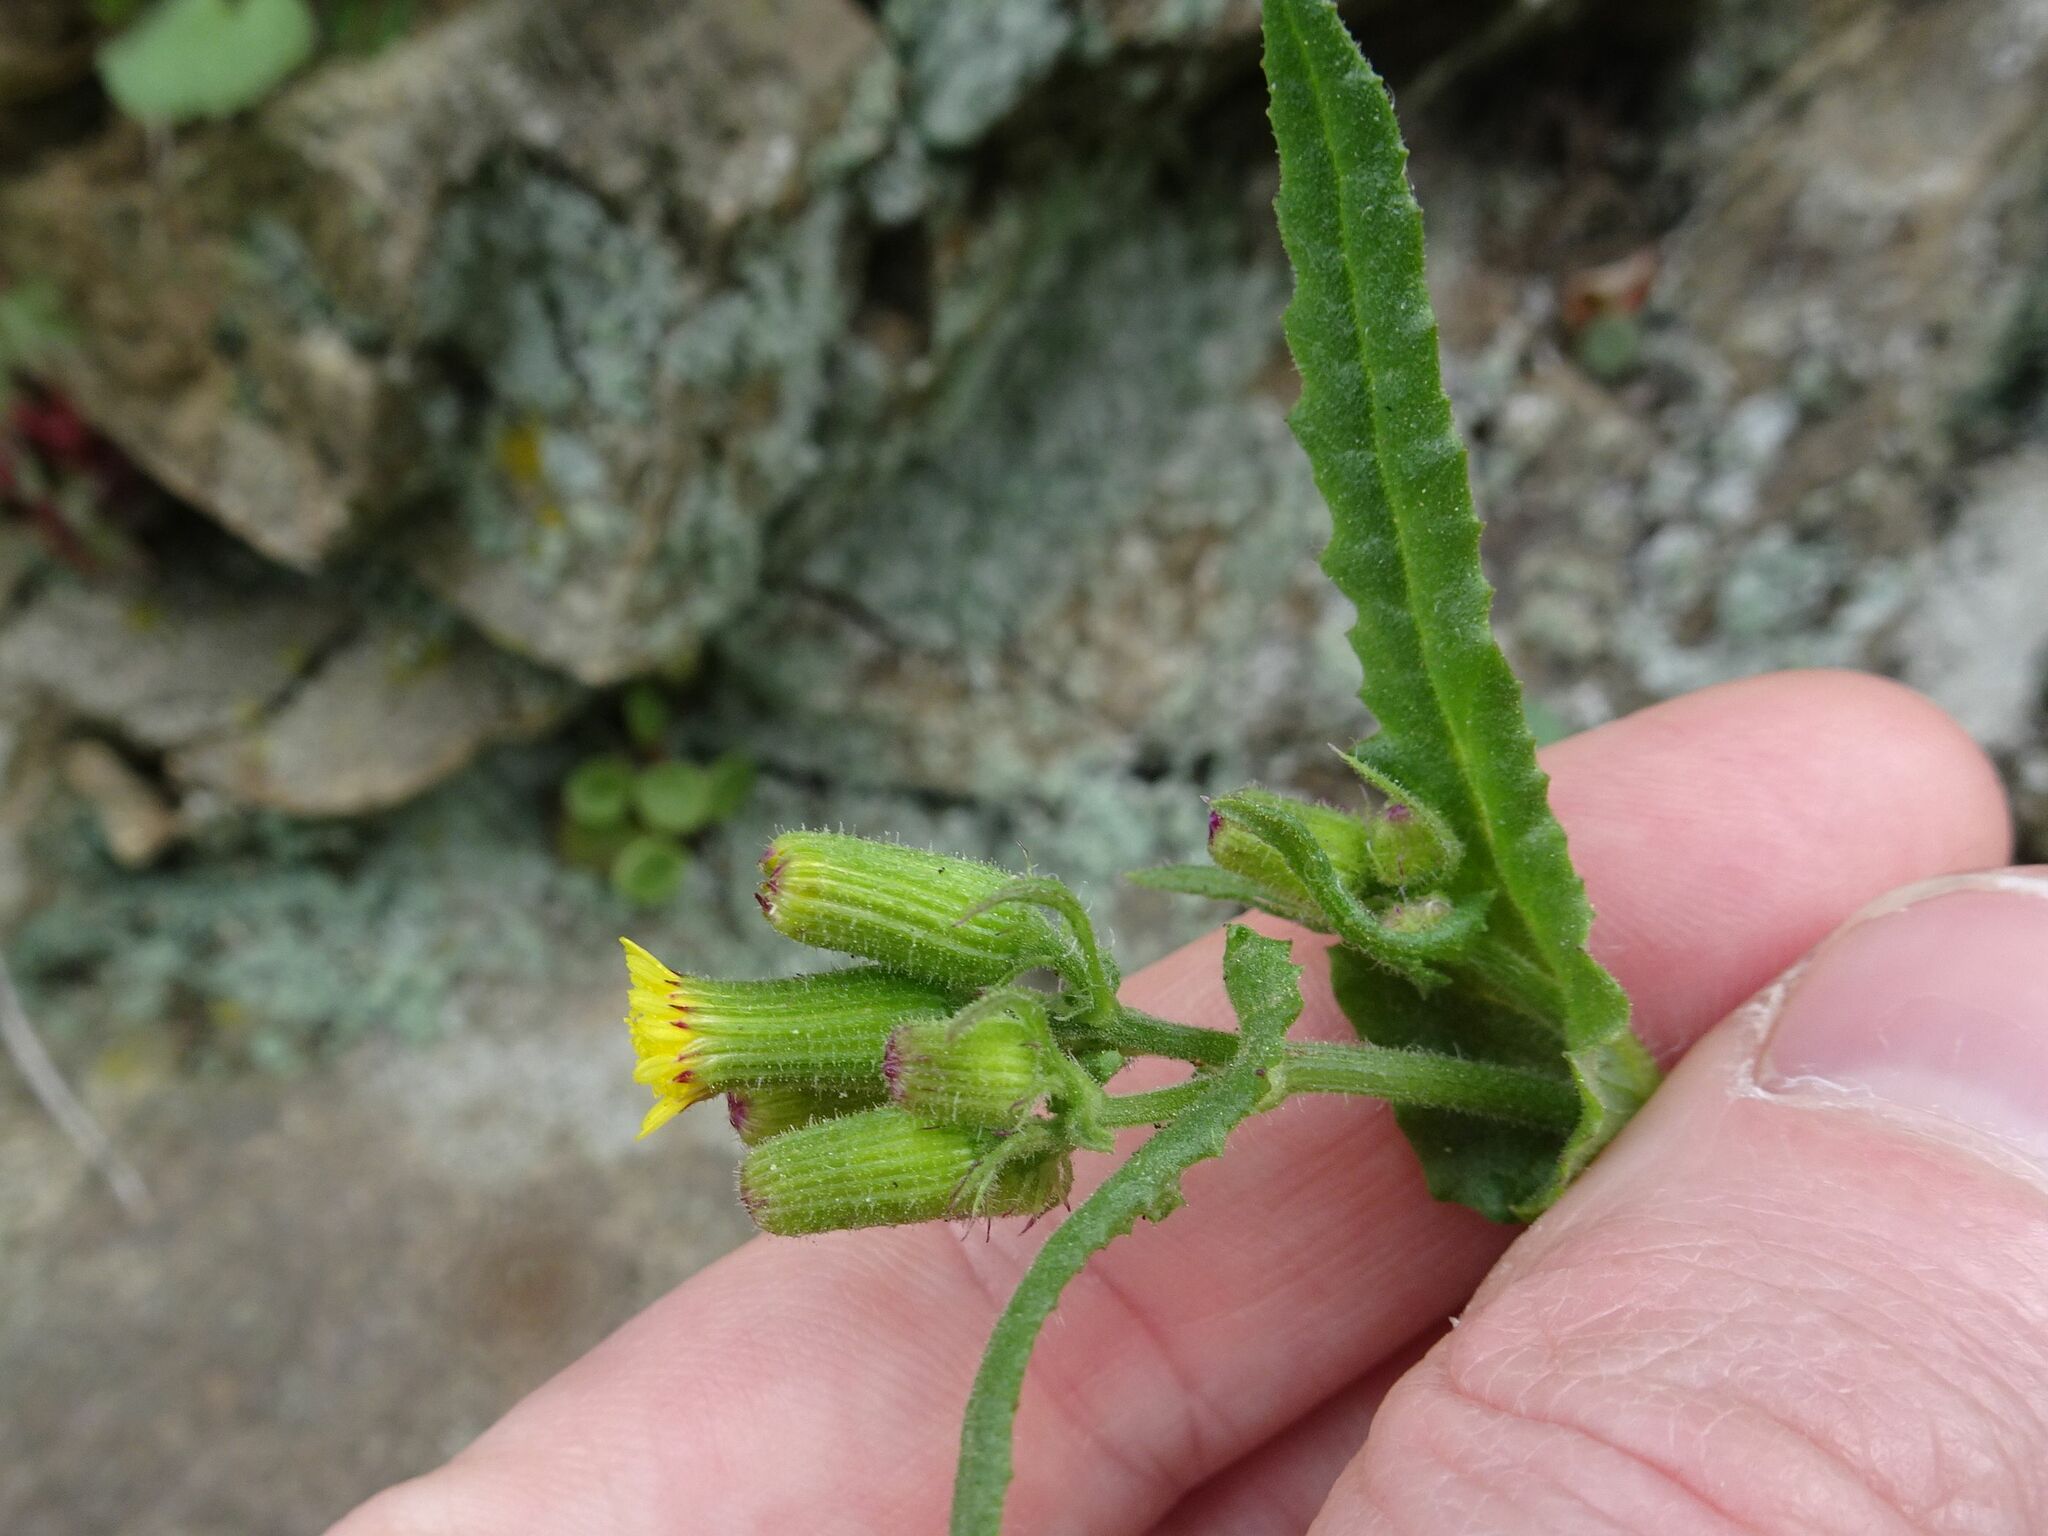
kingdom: Plantae
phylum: Tracheophyta
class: Magnoliopsida
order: Asterales
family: Asteraceae
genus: Senecio
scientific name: Senecio lividus
